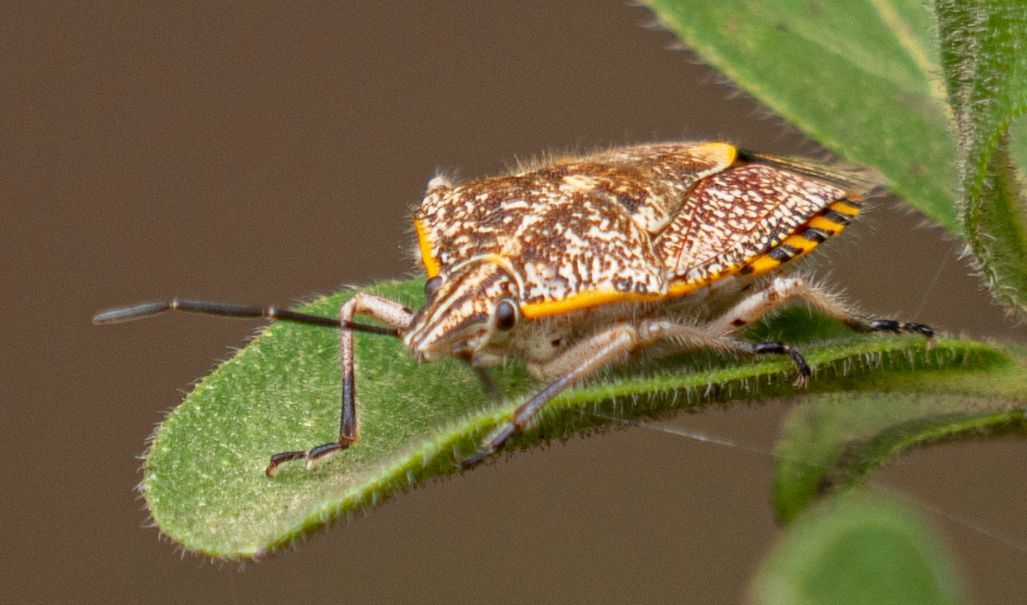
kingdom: Animalia
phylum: Arthropoda
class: Insecta
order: Hemiptera
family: Pentatomidae
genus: Agonoscelis
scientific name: Agonoscelis versicoloratus
